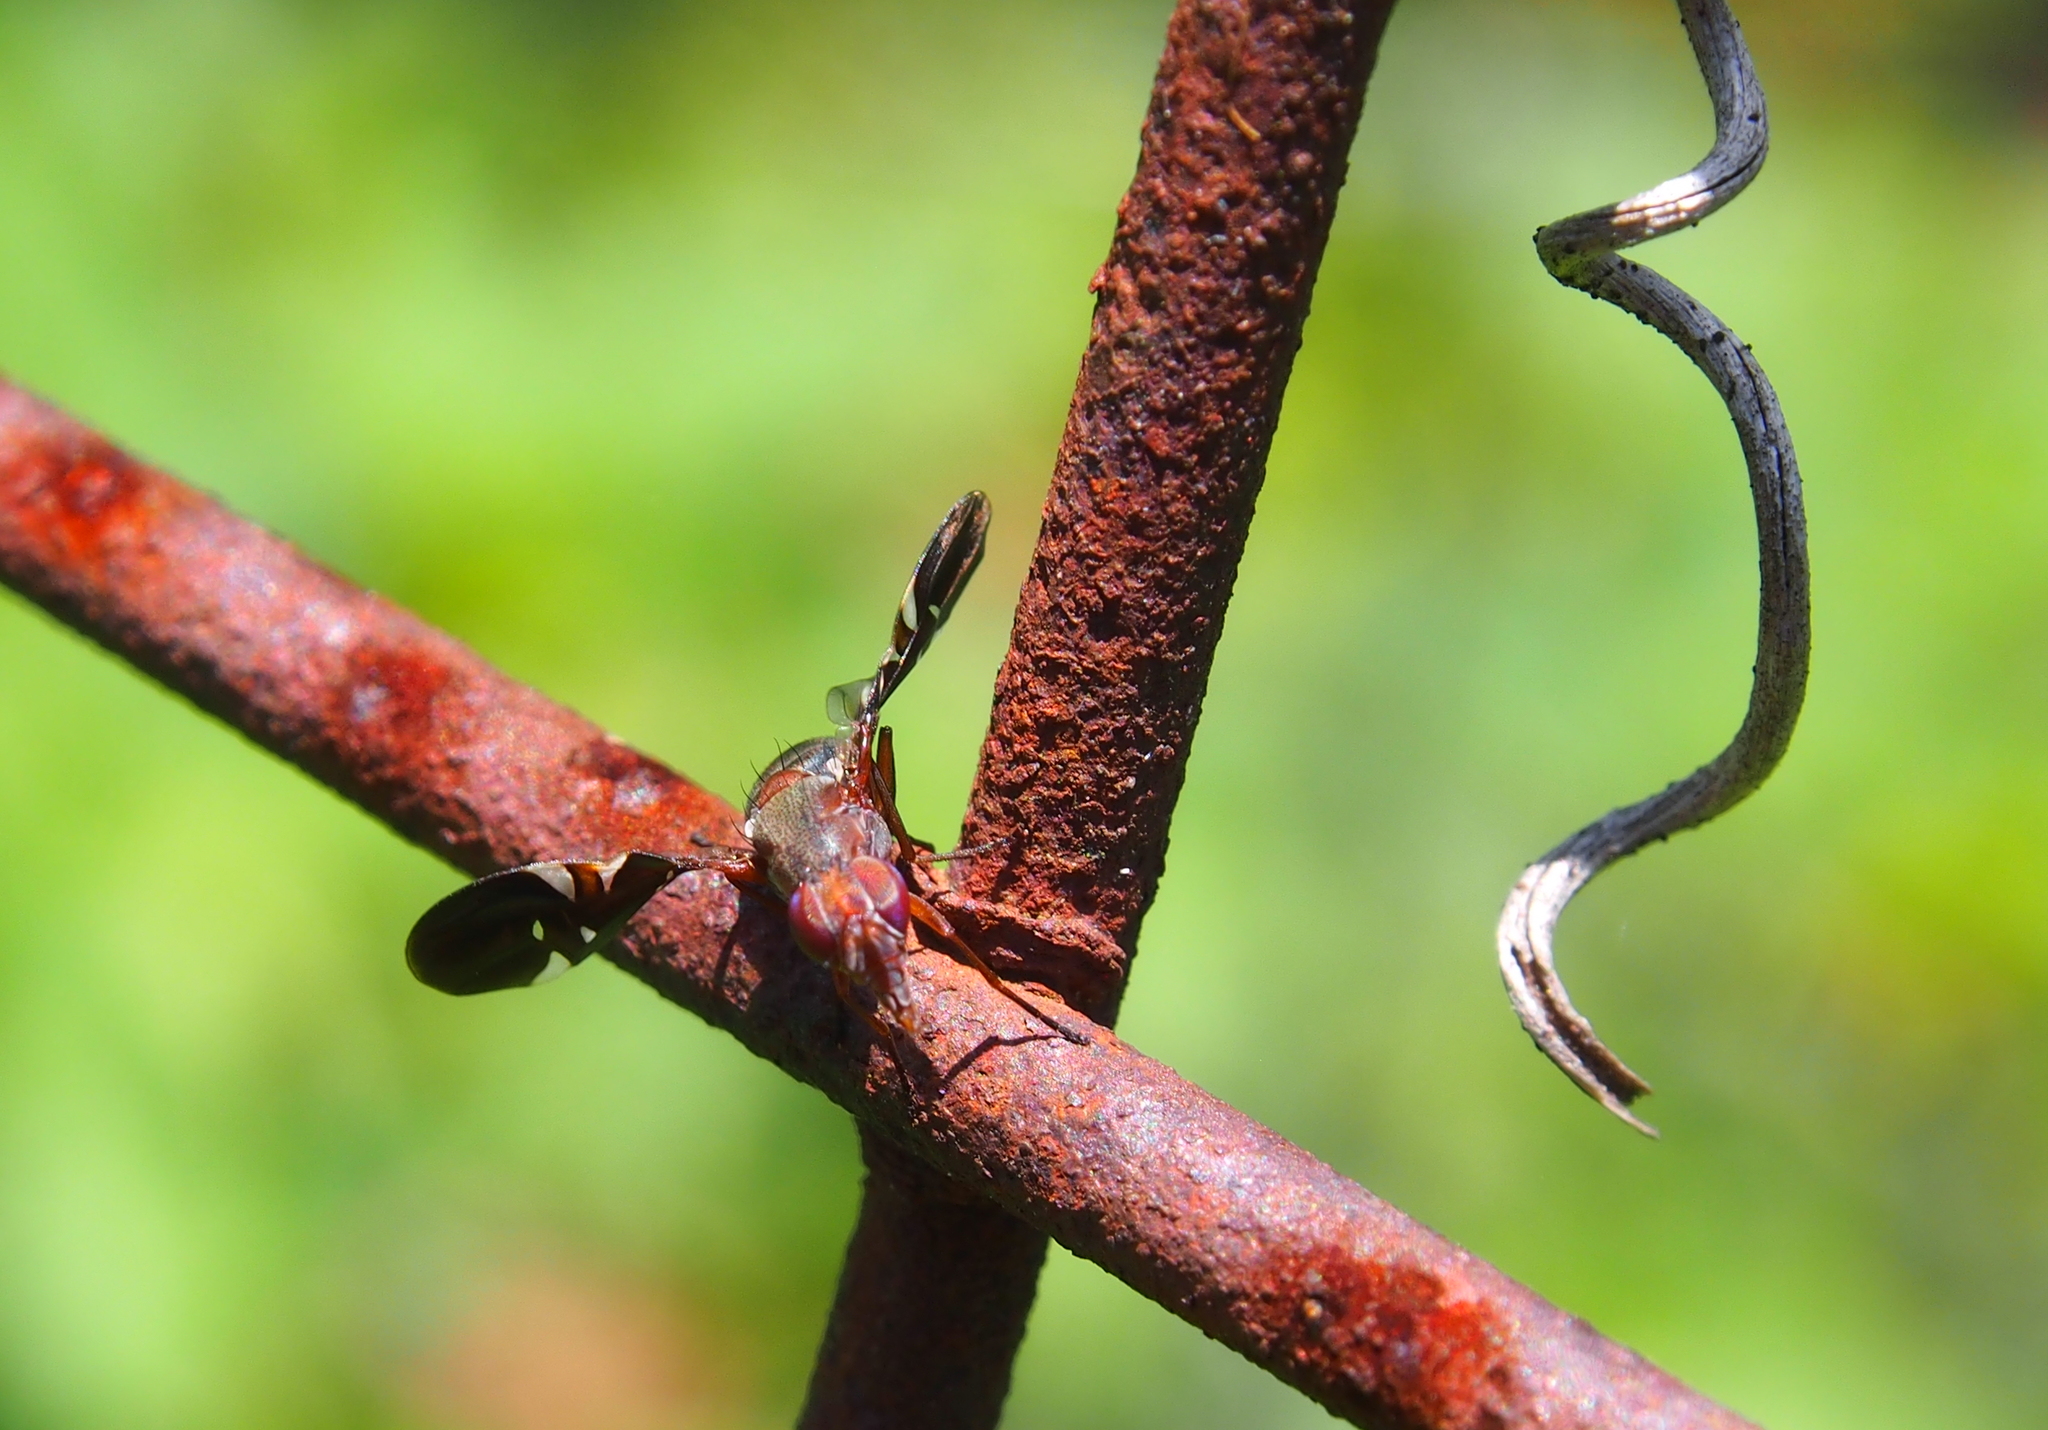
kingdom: Animalia
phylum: Arthropoda
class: Insecta
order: Diptera
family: Ulidiidae
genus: Delphinia
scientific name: Delphinia picta
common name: Common picture-winged fly
